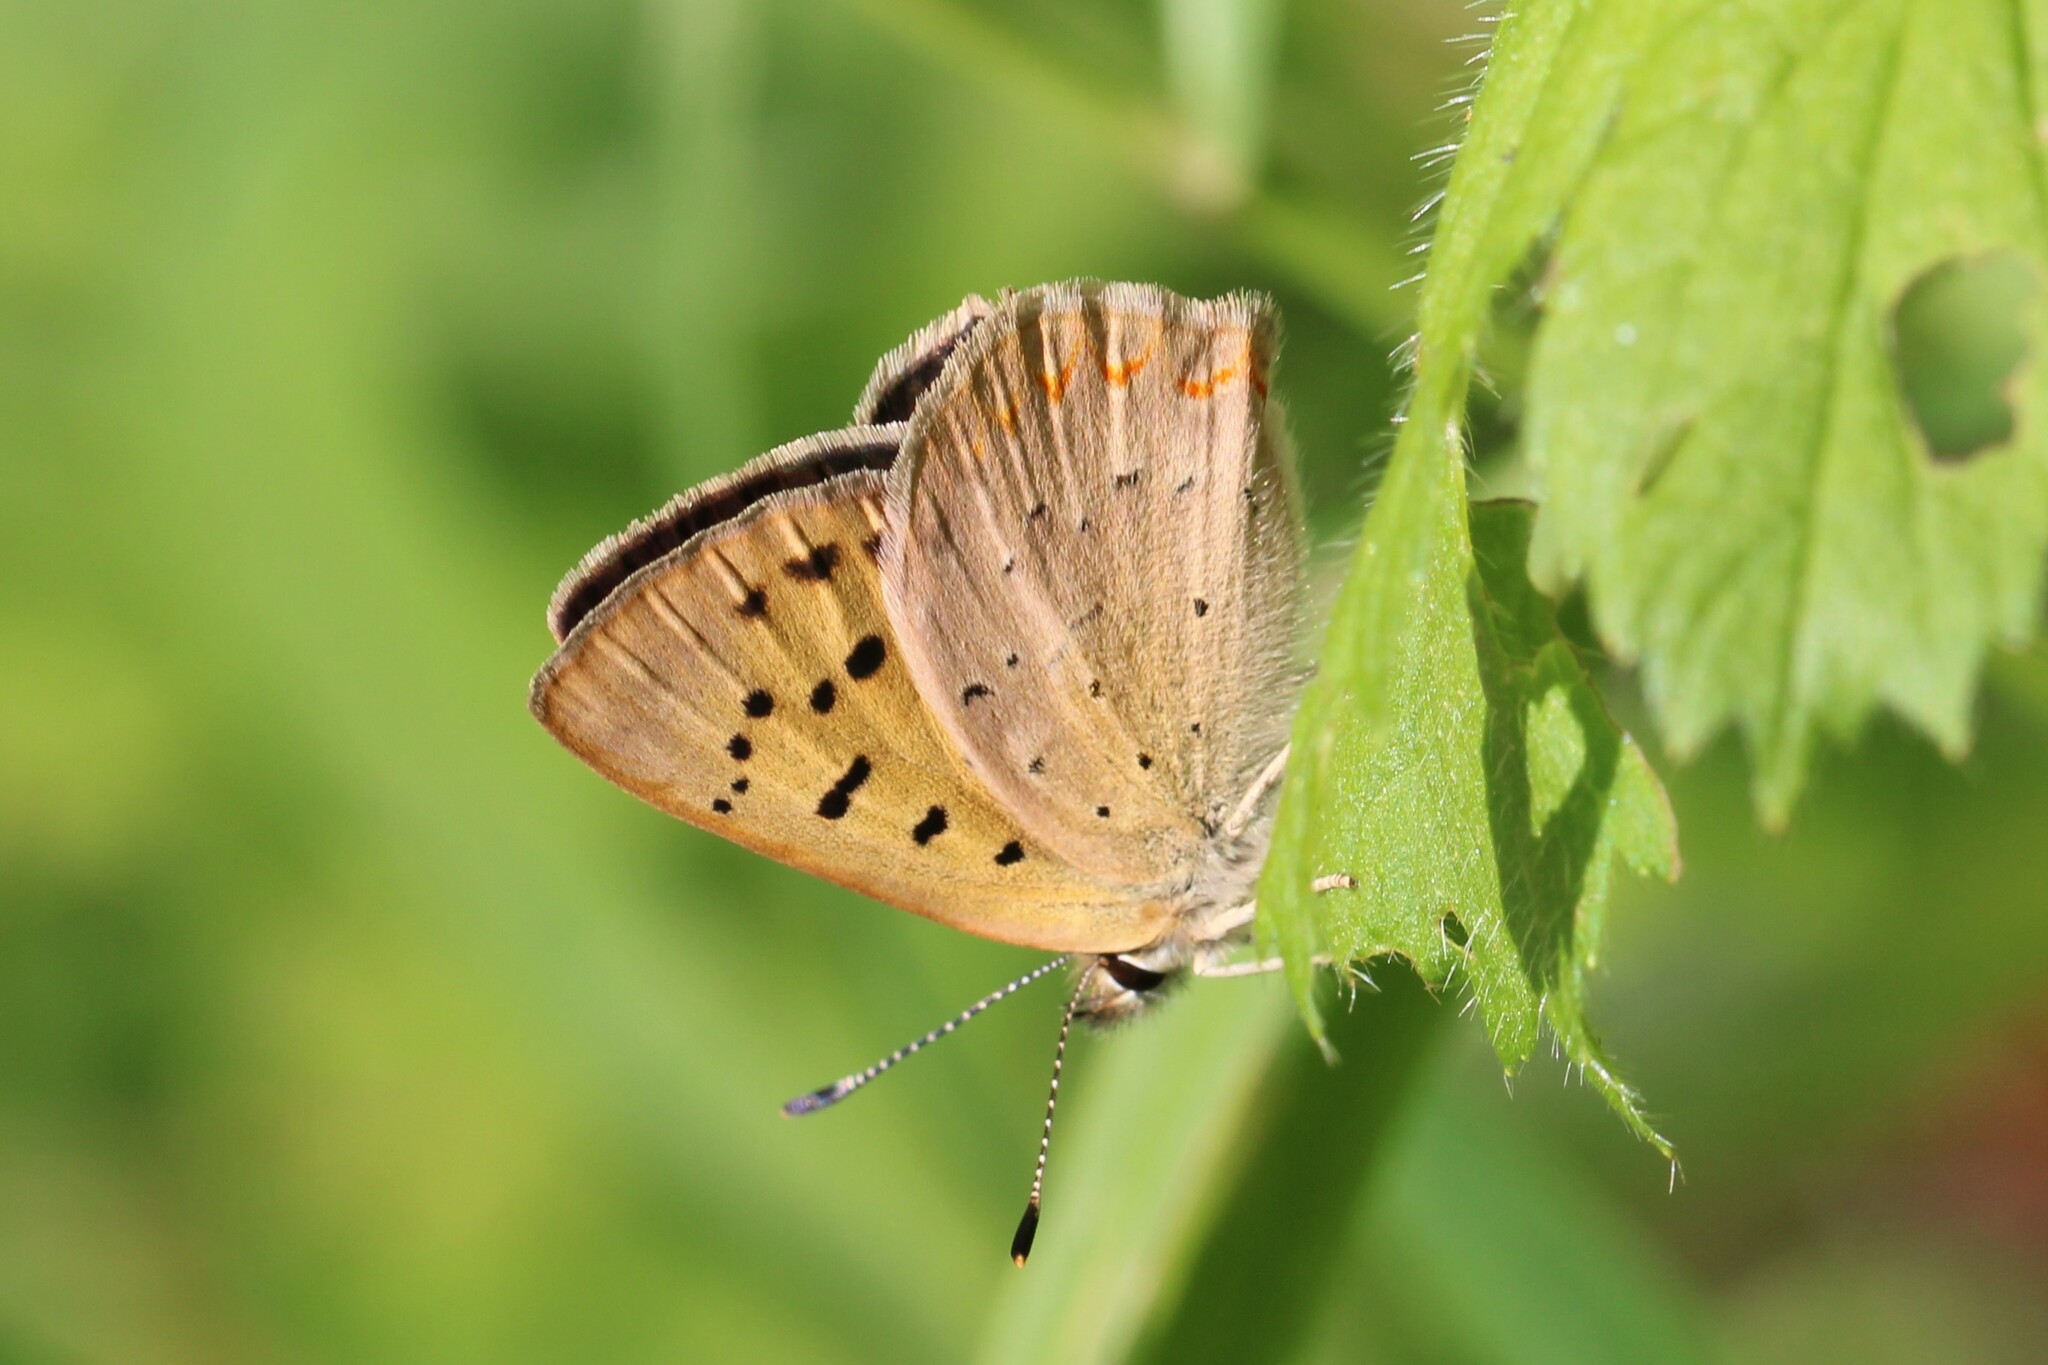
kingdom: Animalia
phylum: Arthropoda
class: Insecta
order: Lepidoptera
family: Lycaenidae
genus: Tharsalea
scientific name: Tharsalea dorcas
